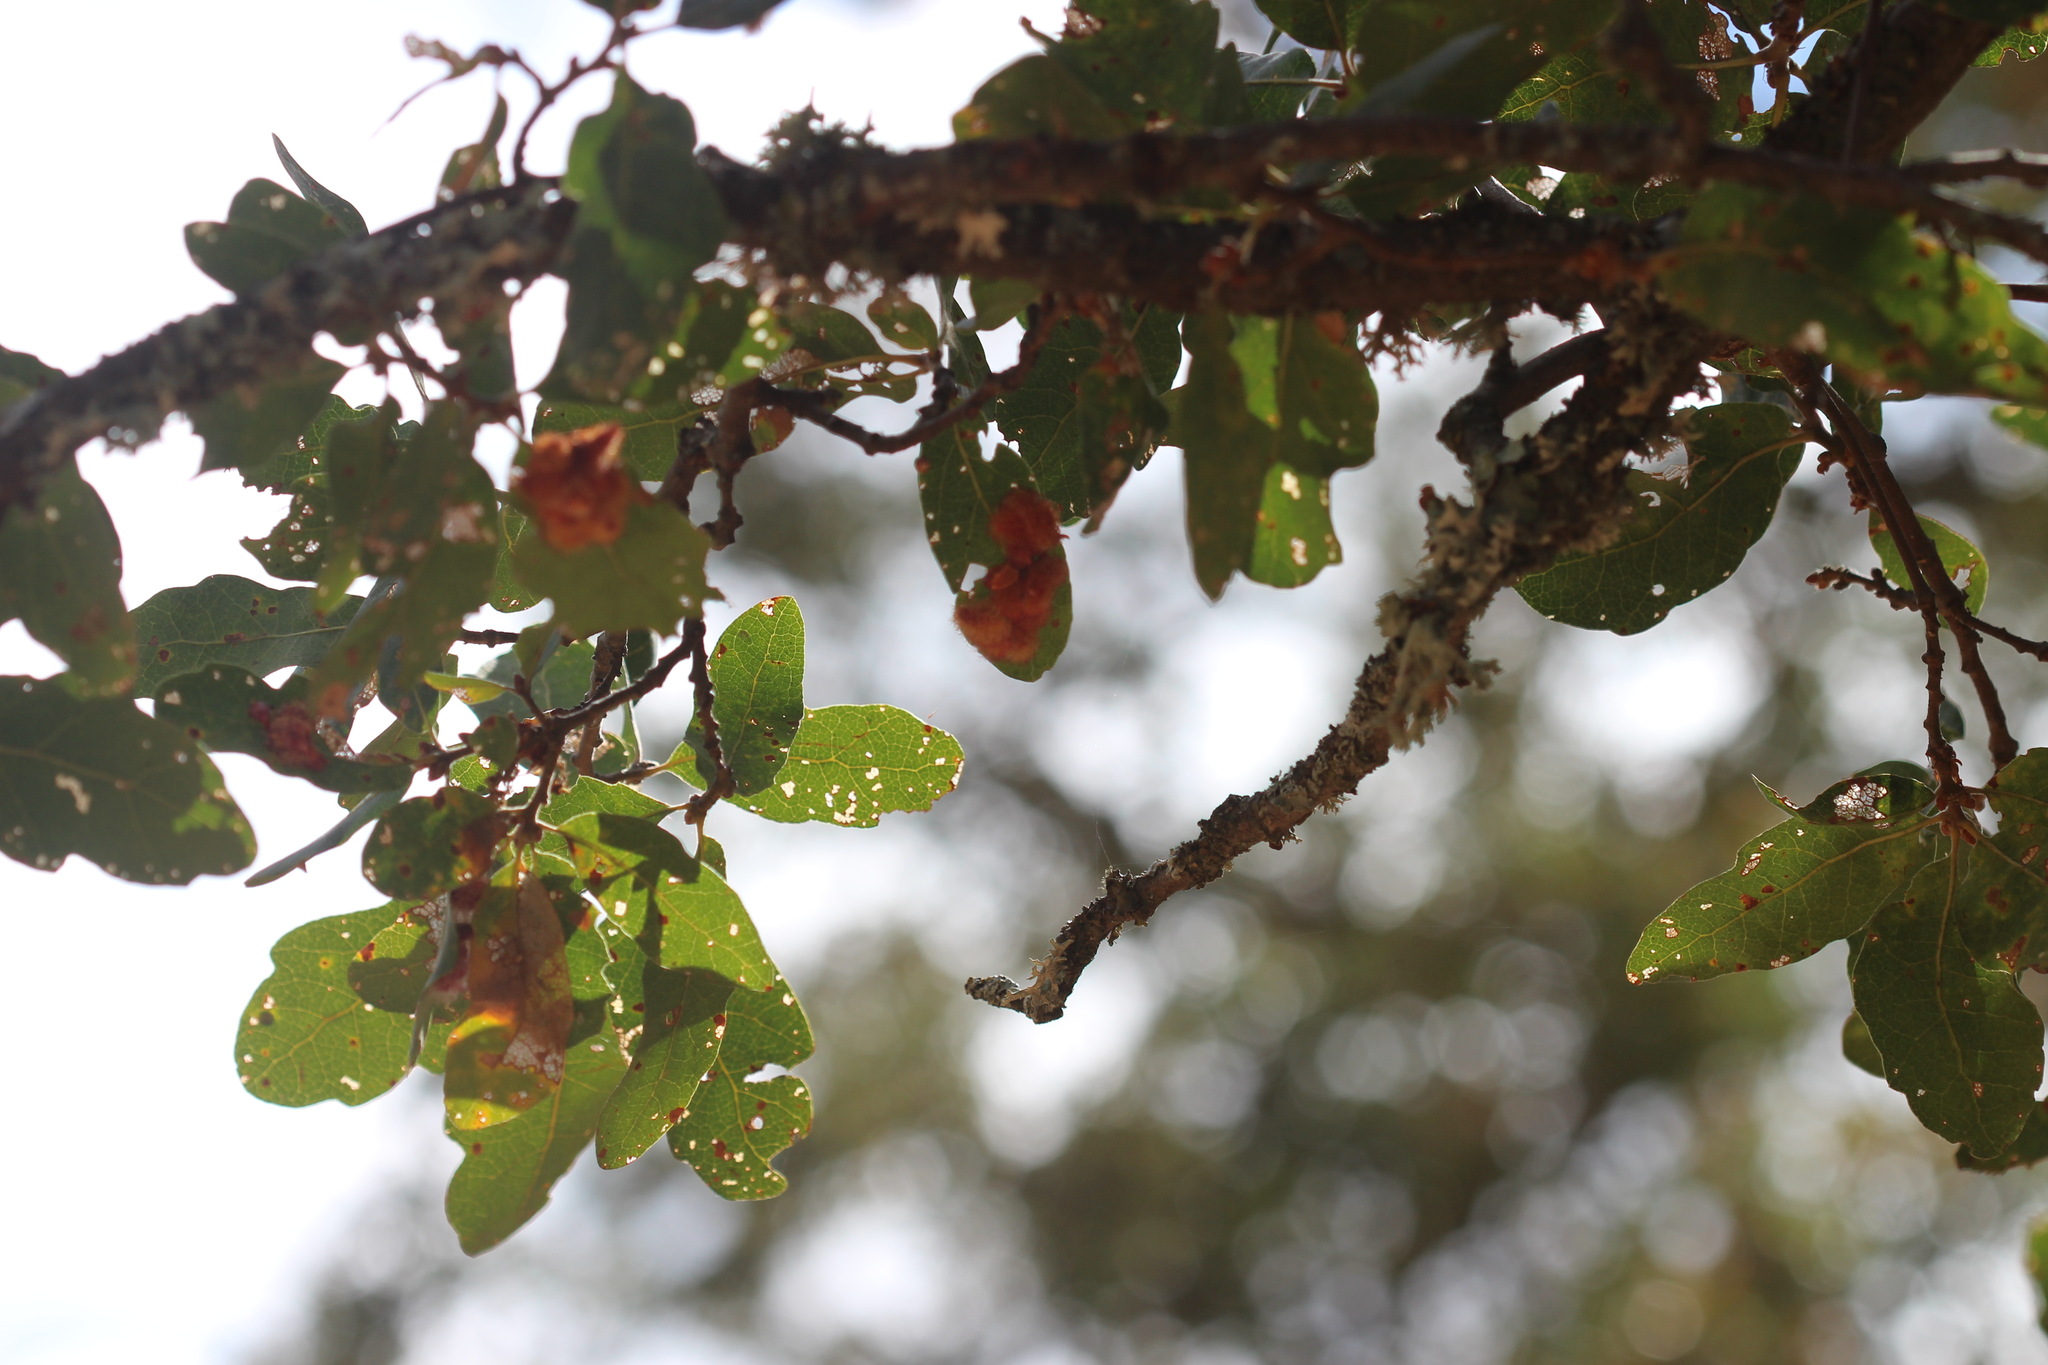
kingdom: Animalia
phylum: Arthropoda
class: Insecta
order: Hymenoptera
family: Cynipidae
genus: Andricus
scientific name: Andricus
